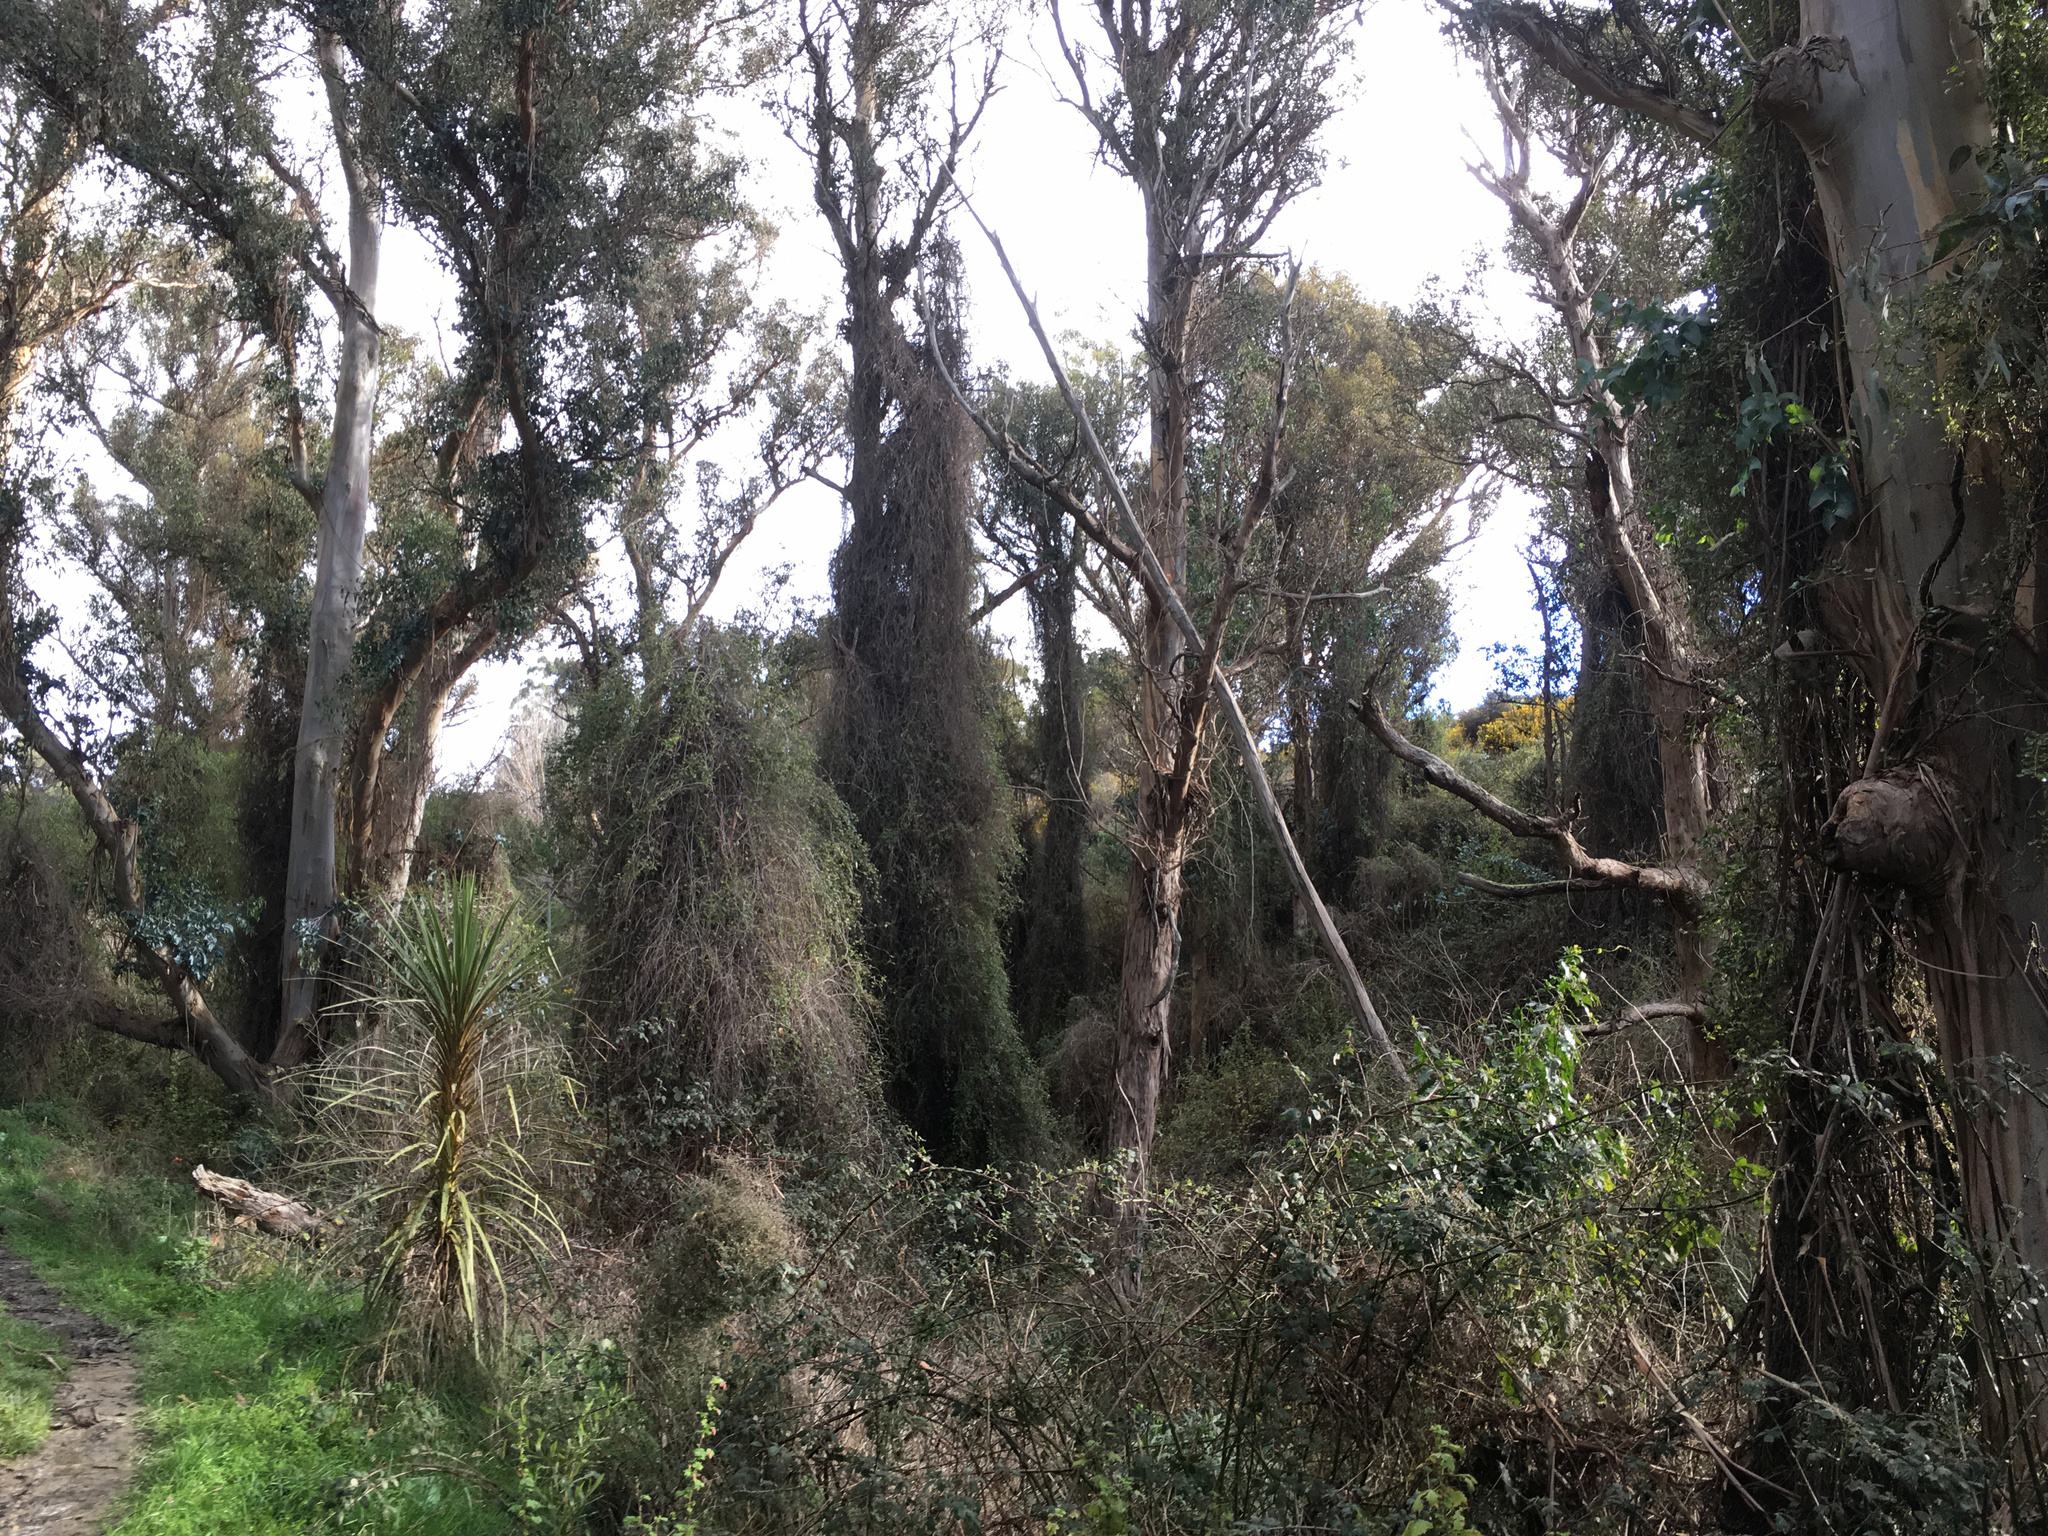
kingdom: Plantae
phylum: Tracheophyta
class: Magnoliopsida
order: Caryophyllales
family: Polygonaceae
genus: Muehlenbeckia
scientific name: Muehlenbeckia australis
